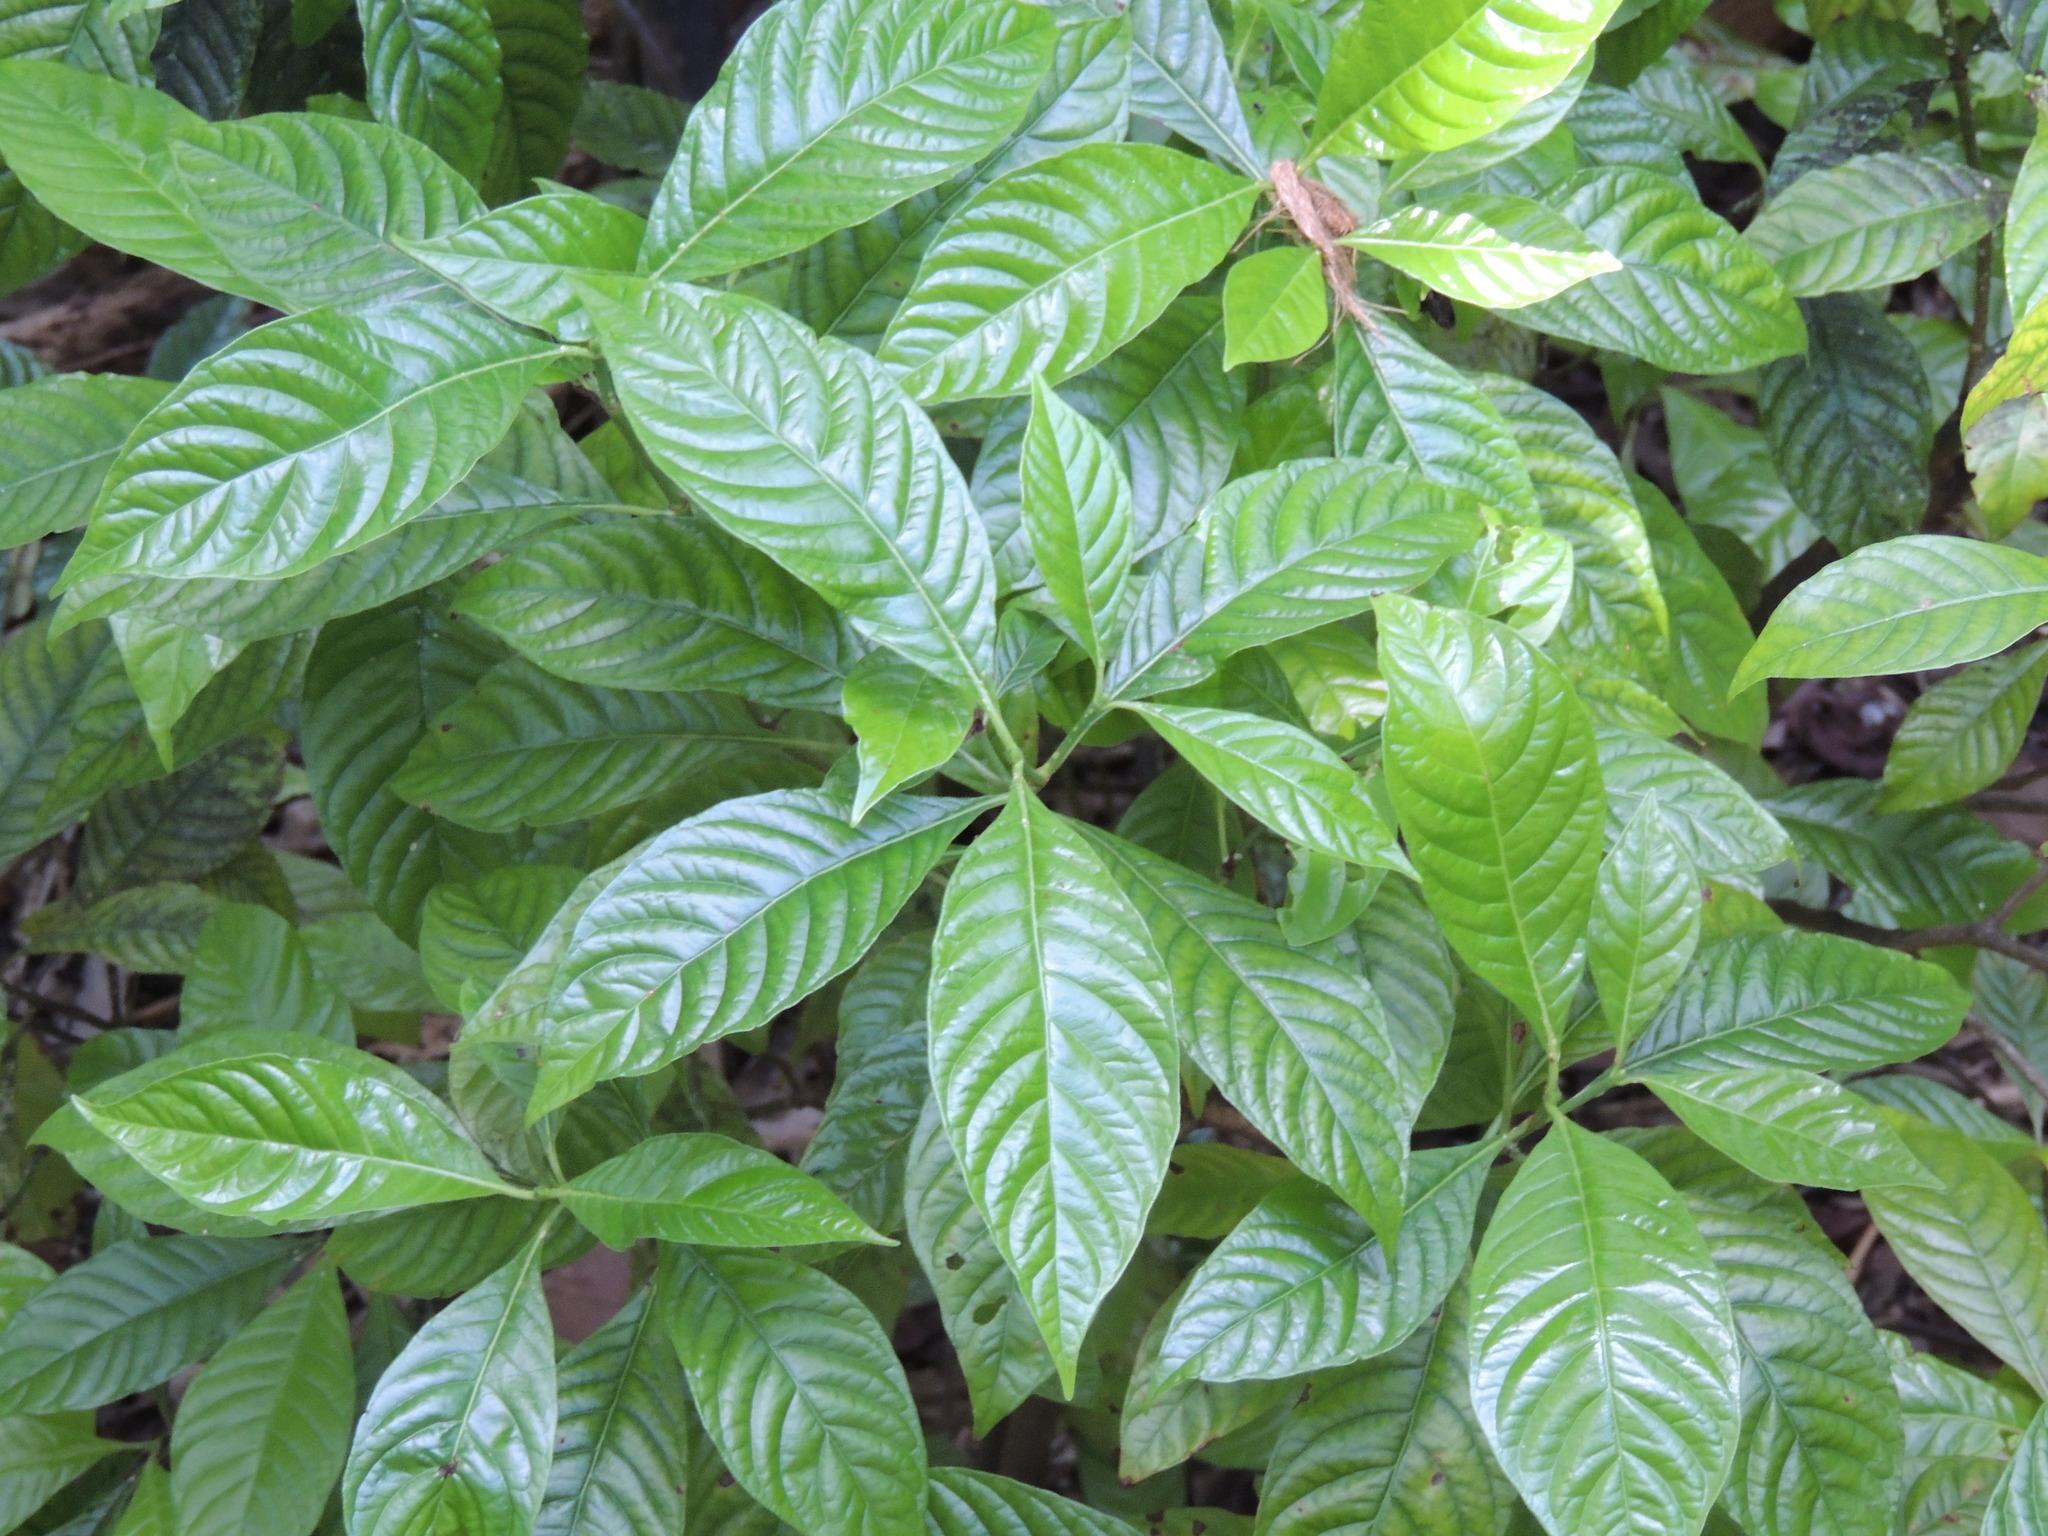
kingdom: Plantae
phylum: Tracheophyta
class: Magnoliopsida
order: Gentianales
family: Rubiaceae
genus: Psychotria
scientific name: Psychotria nervosa
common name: Bastard cankerberry
